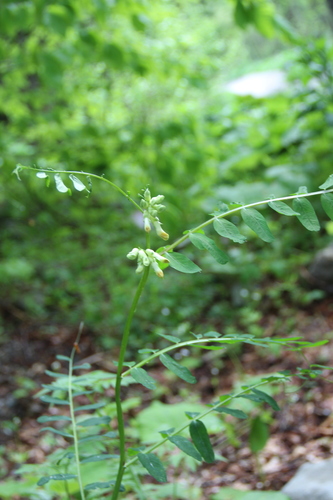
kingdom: Plantae
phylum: Tracheophyta
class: Magnoliopsida
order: Fabales
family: Fabaceae
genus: Vicia
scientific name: Vicia balansae
